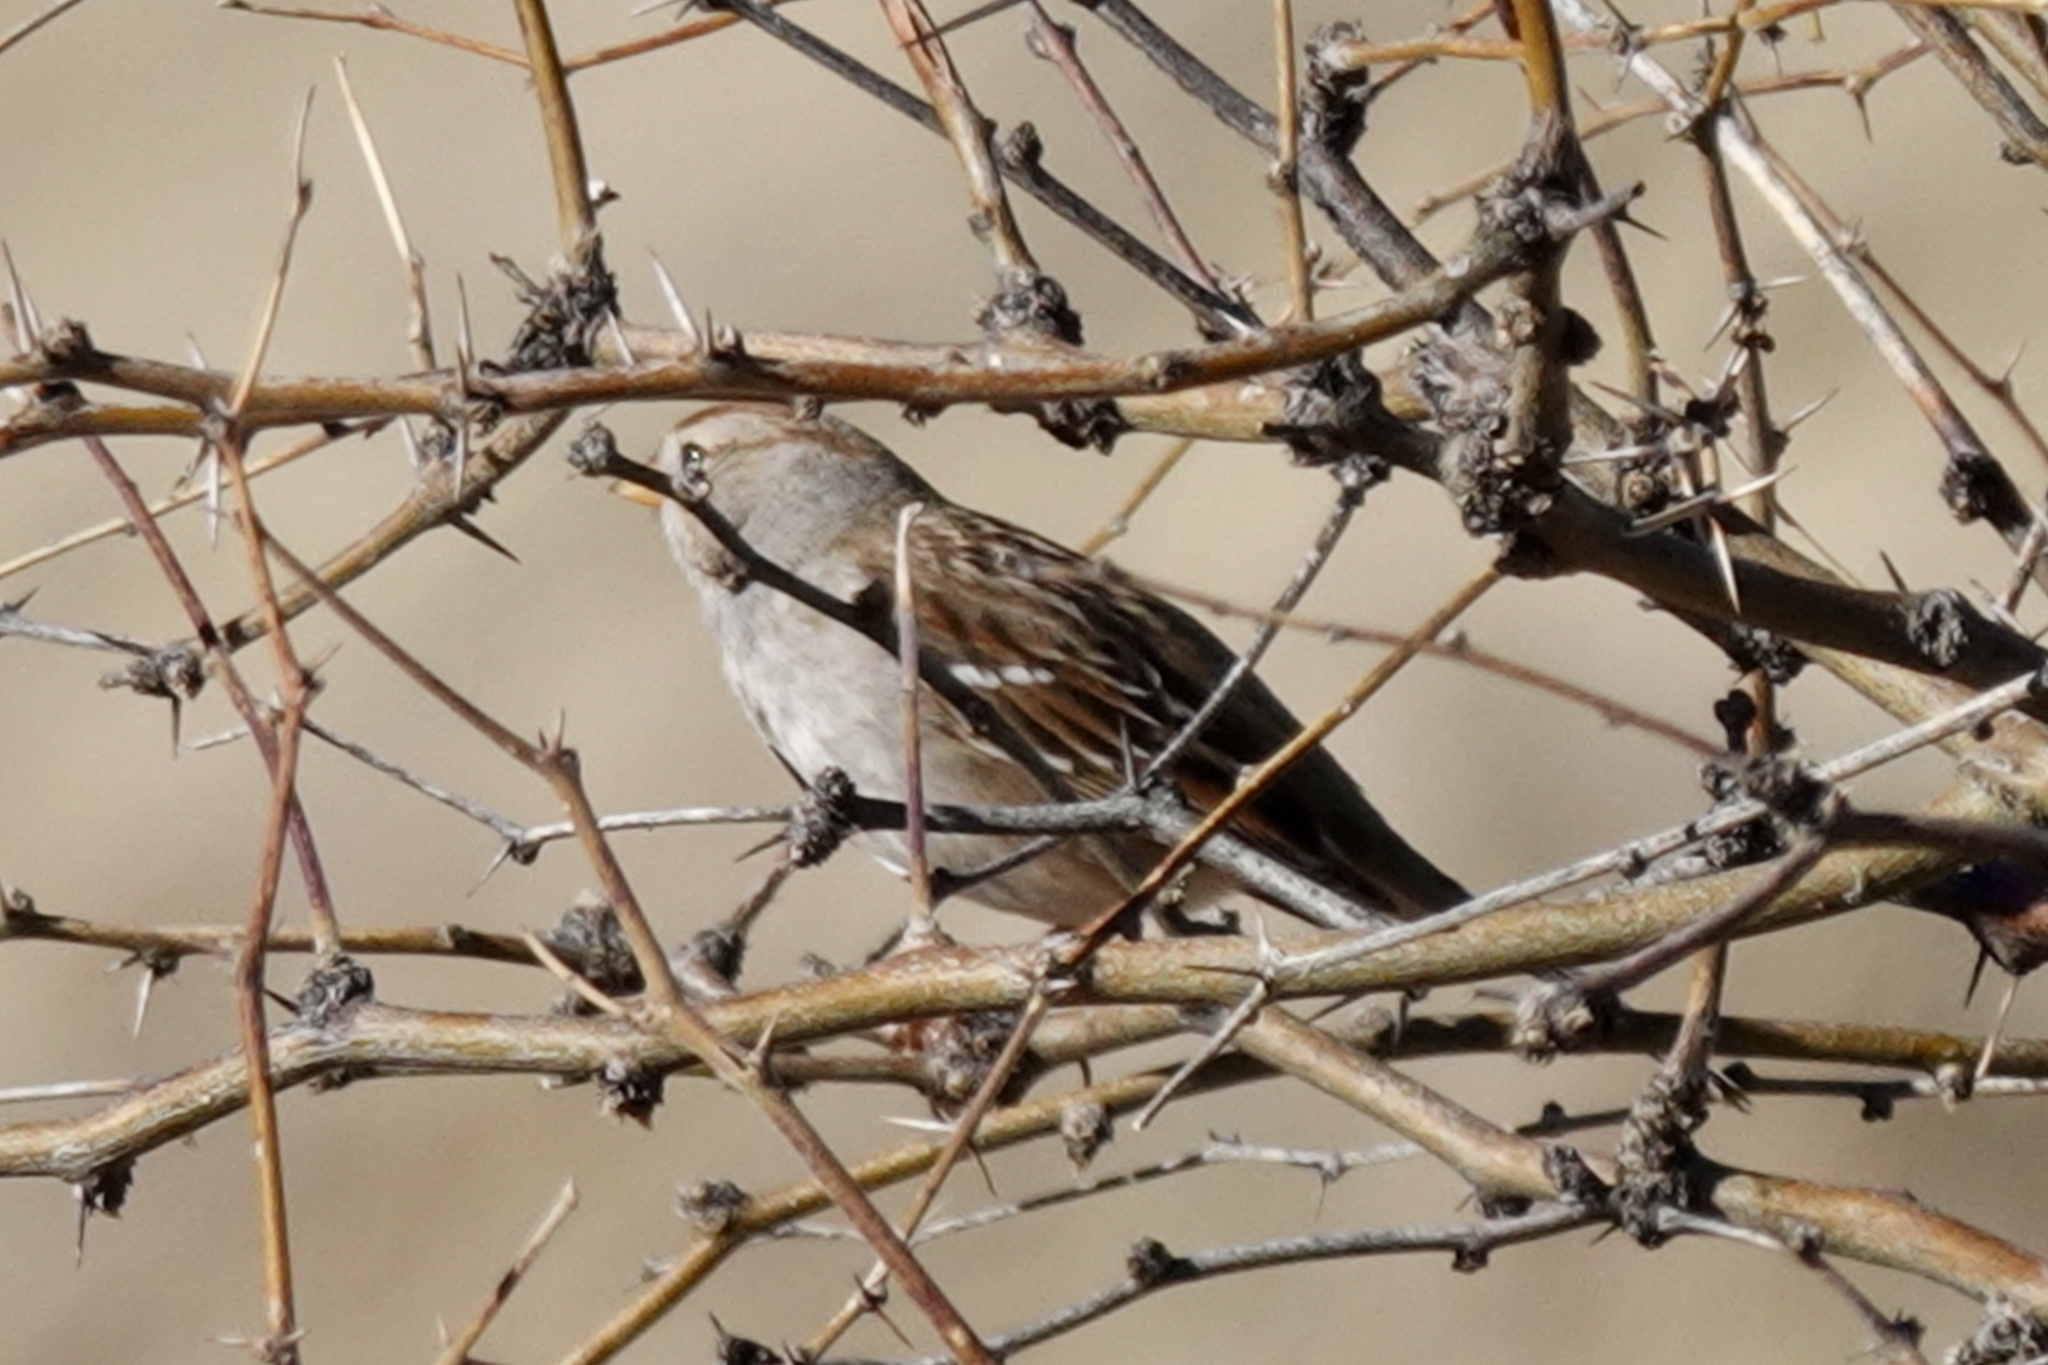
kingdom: Animalia
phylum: Chordata
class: Aves
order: Passeriformes
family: Passerellidae
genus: Zonotrichia
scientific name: Zonotrichia leucophrys
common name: White-crowned sparrow
